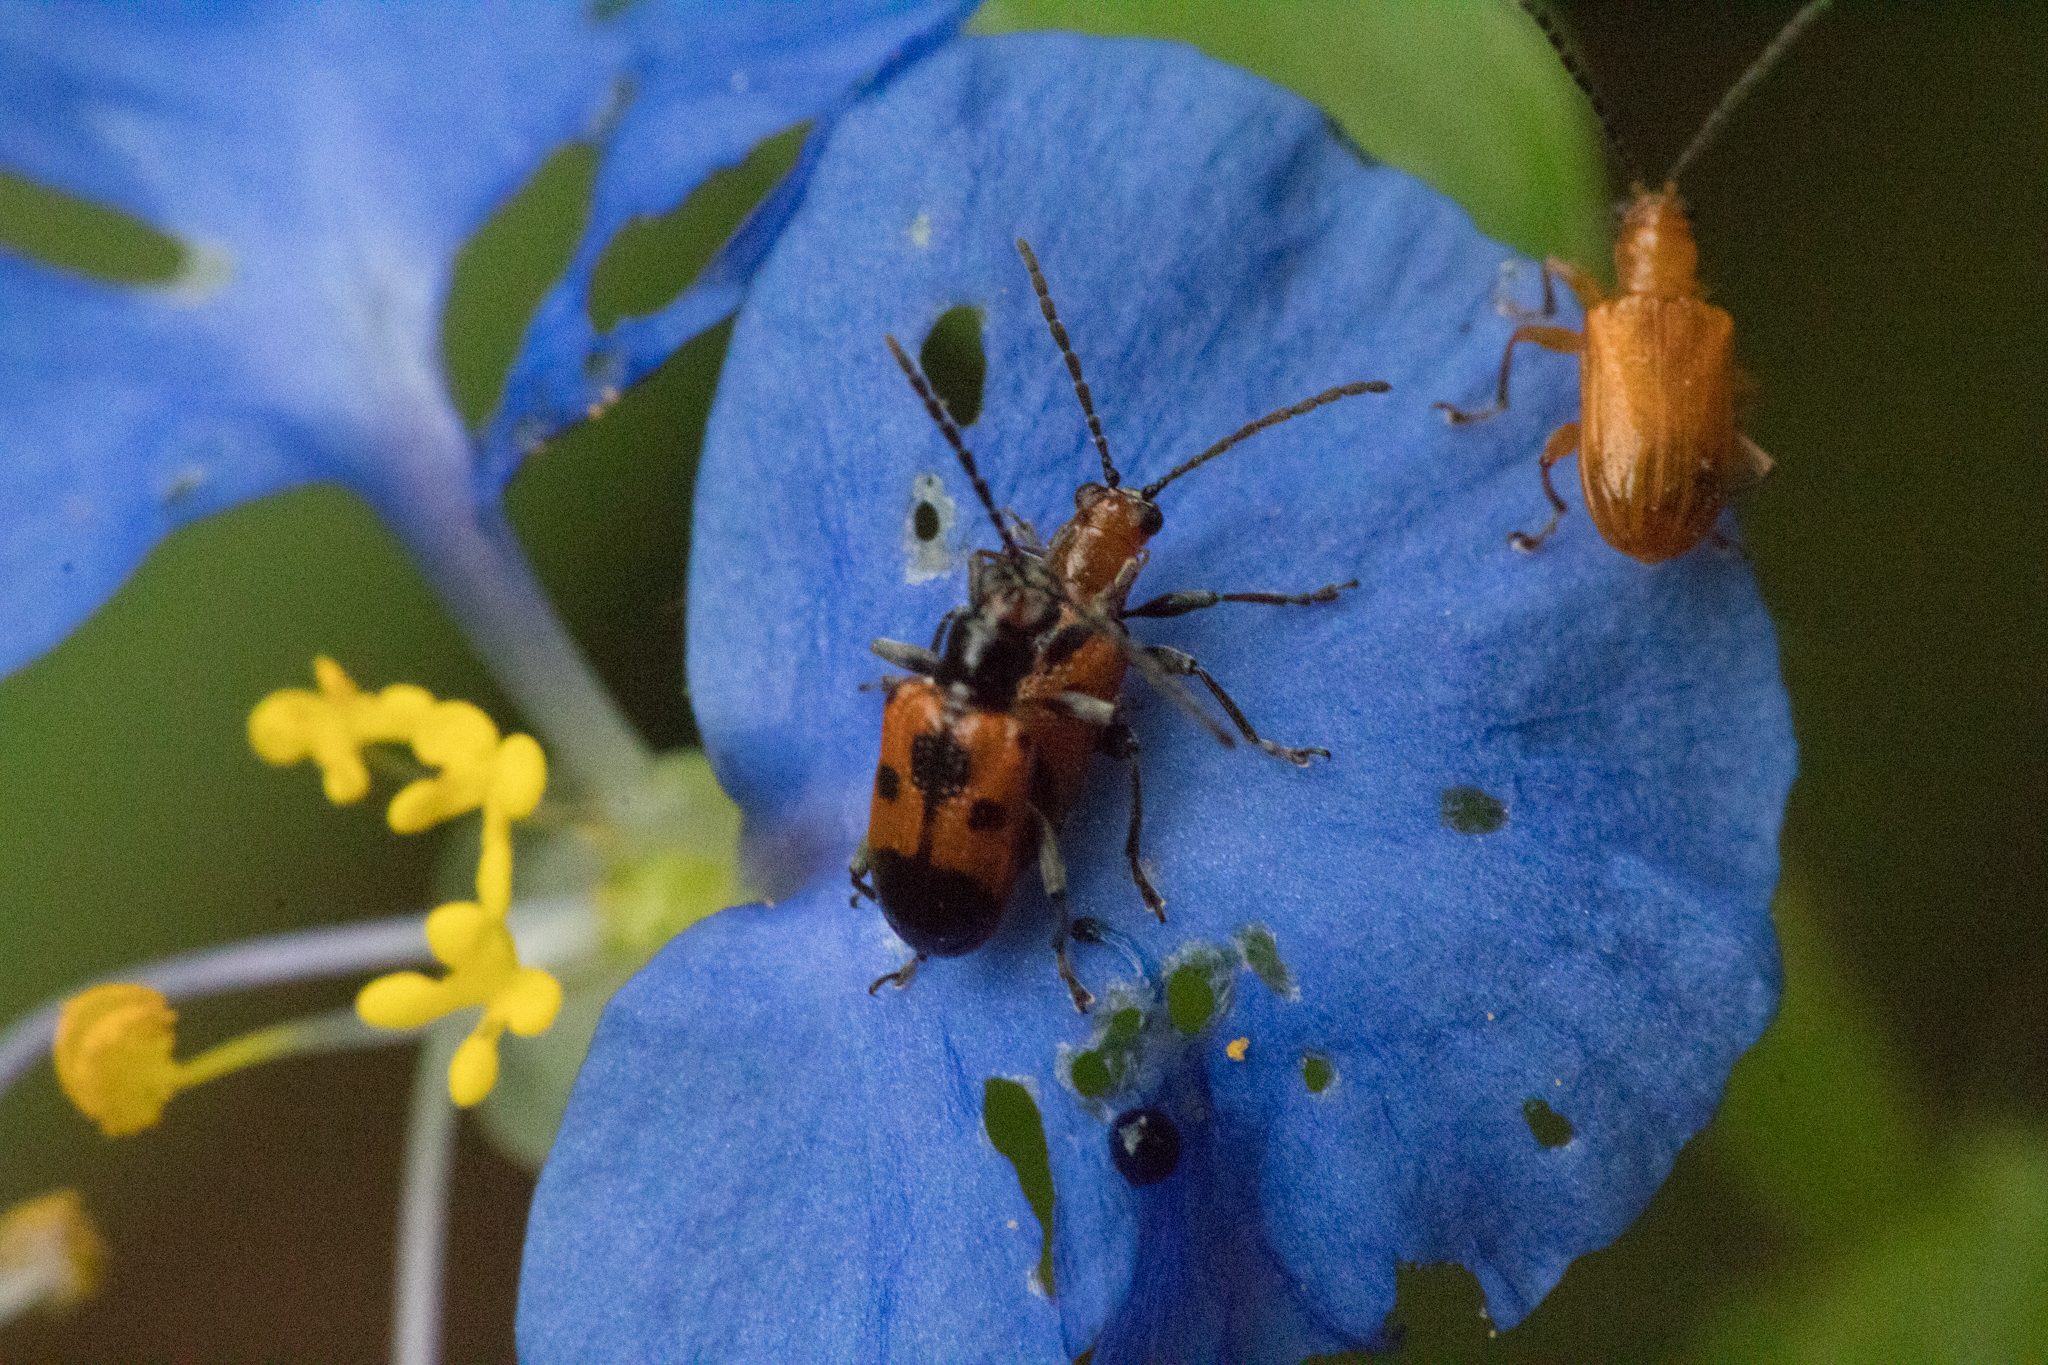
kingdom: Animalia
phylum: Arthropoda
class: Insecta
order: Coleoptera
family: Chrysomelidae
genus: Neolema
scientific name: Neolema dorsalis
